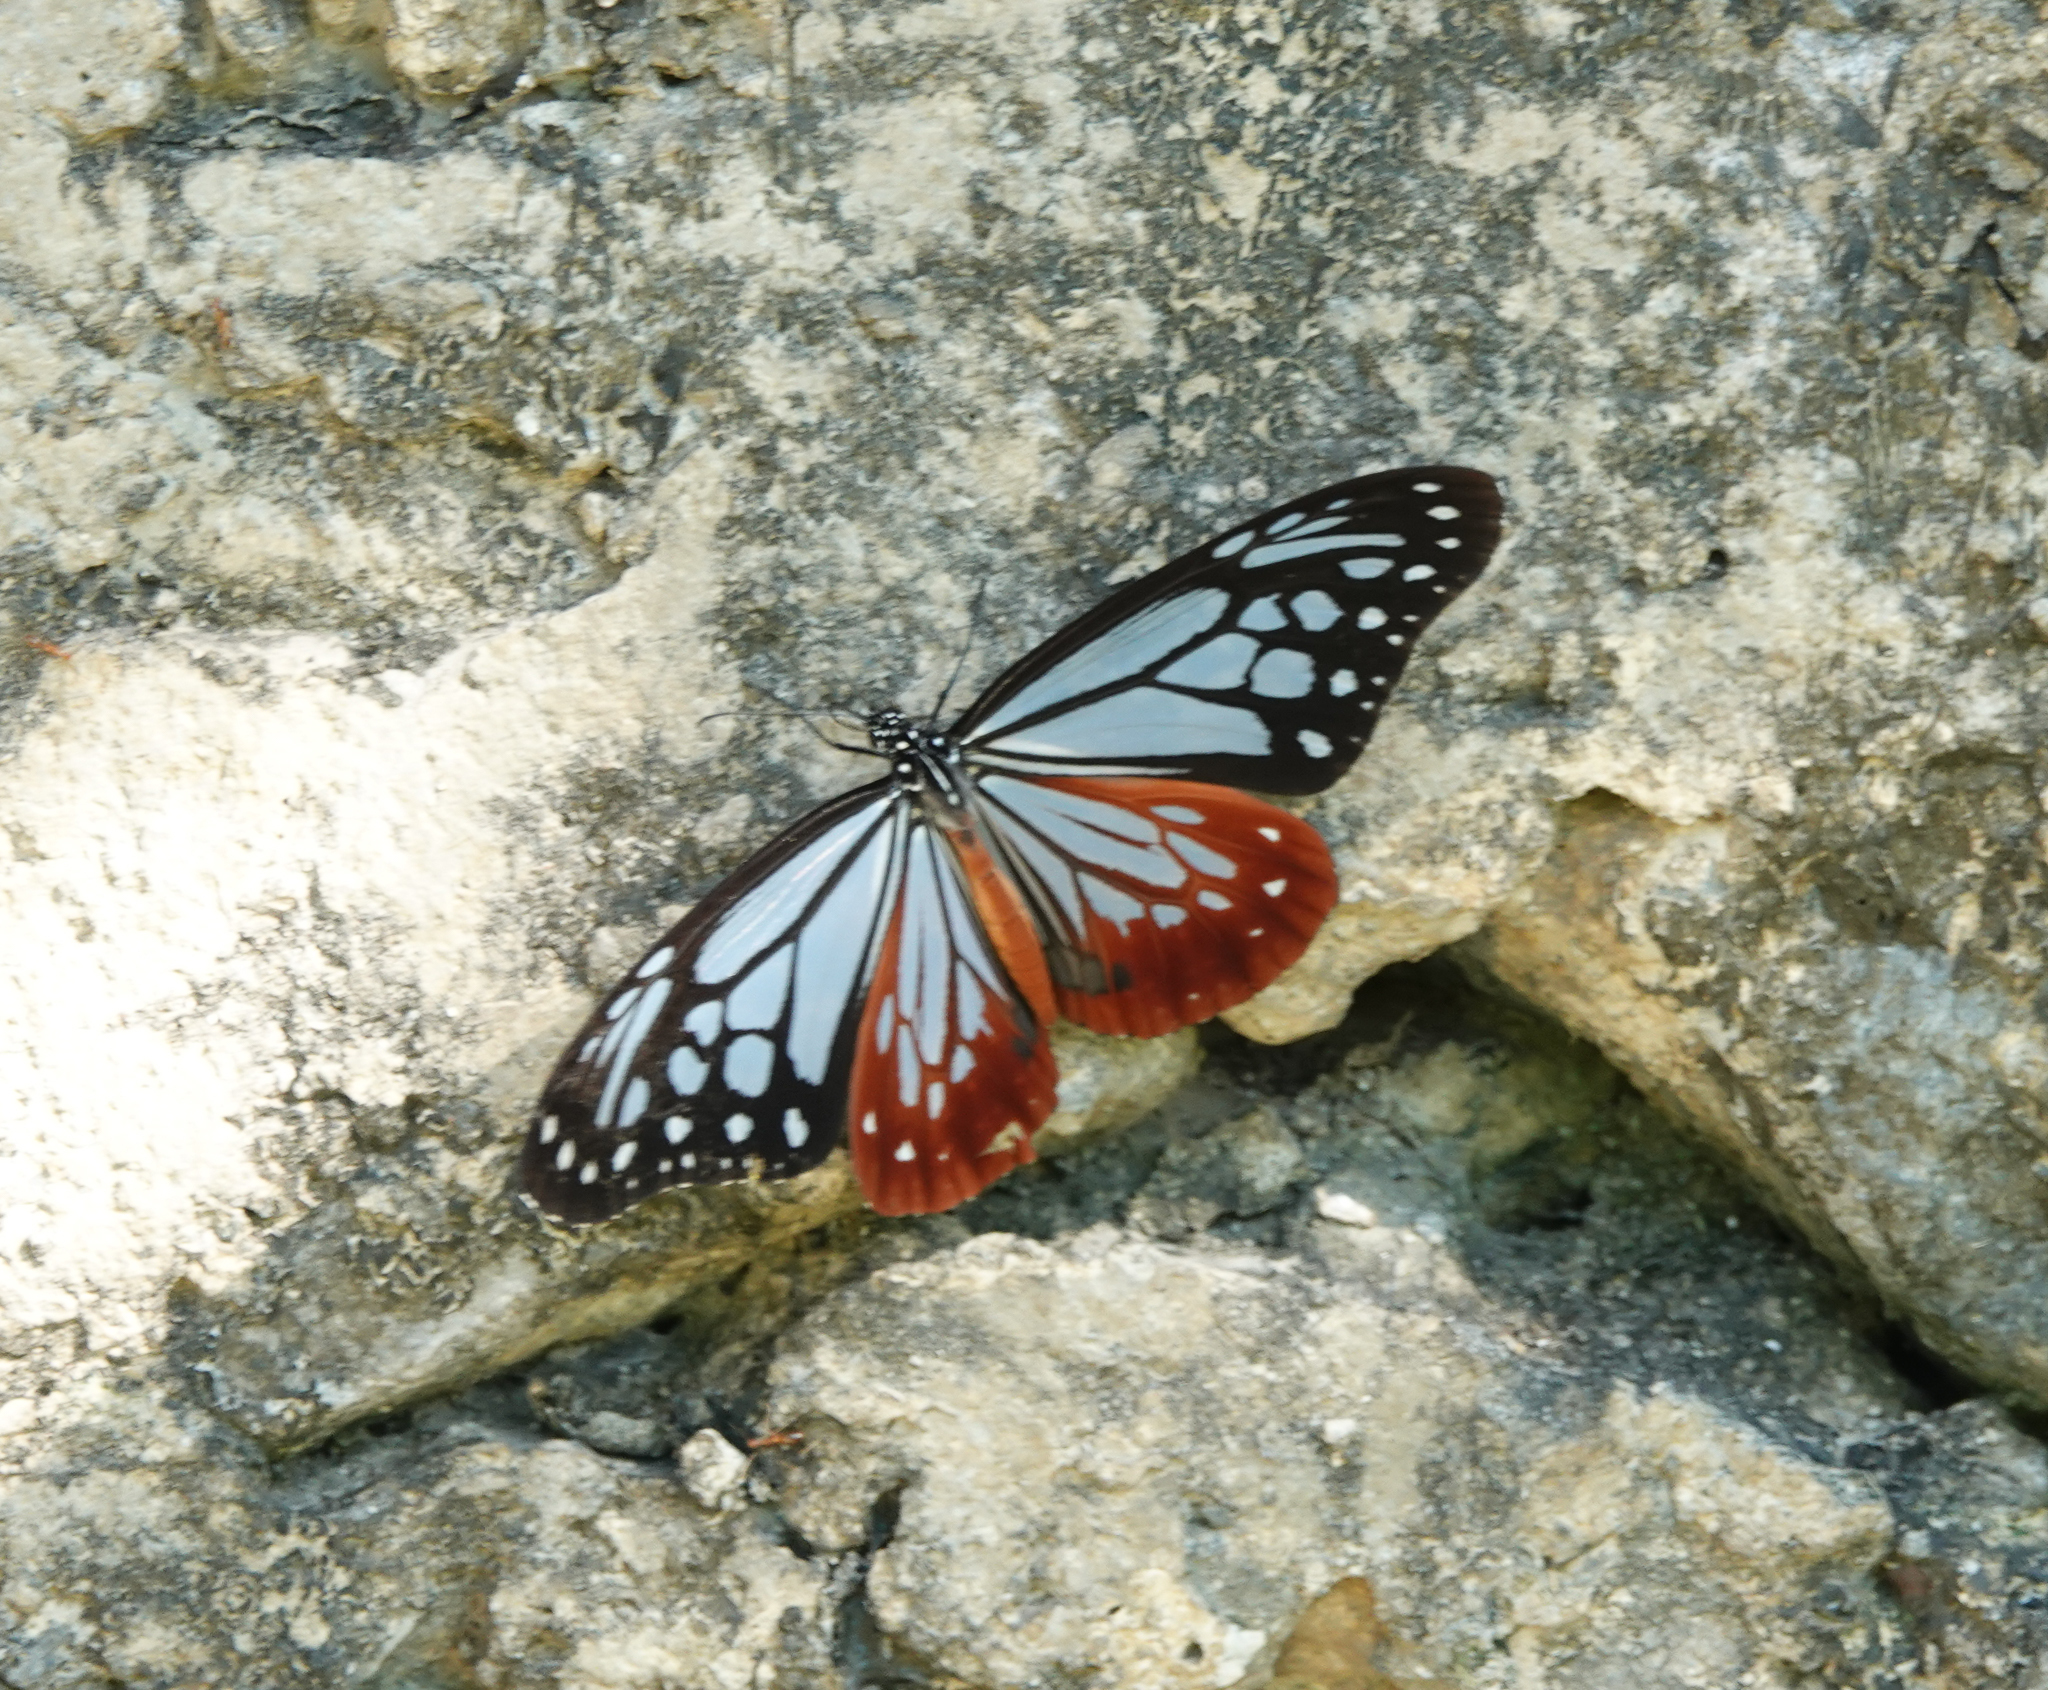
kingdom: Animalia
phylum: Arthropoda
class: Insecta
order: Lepidoptera
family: Nymphalidae
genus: Parantica
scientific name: Parantica sita
